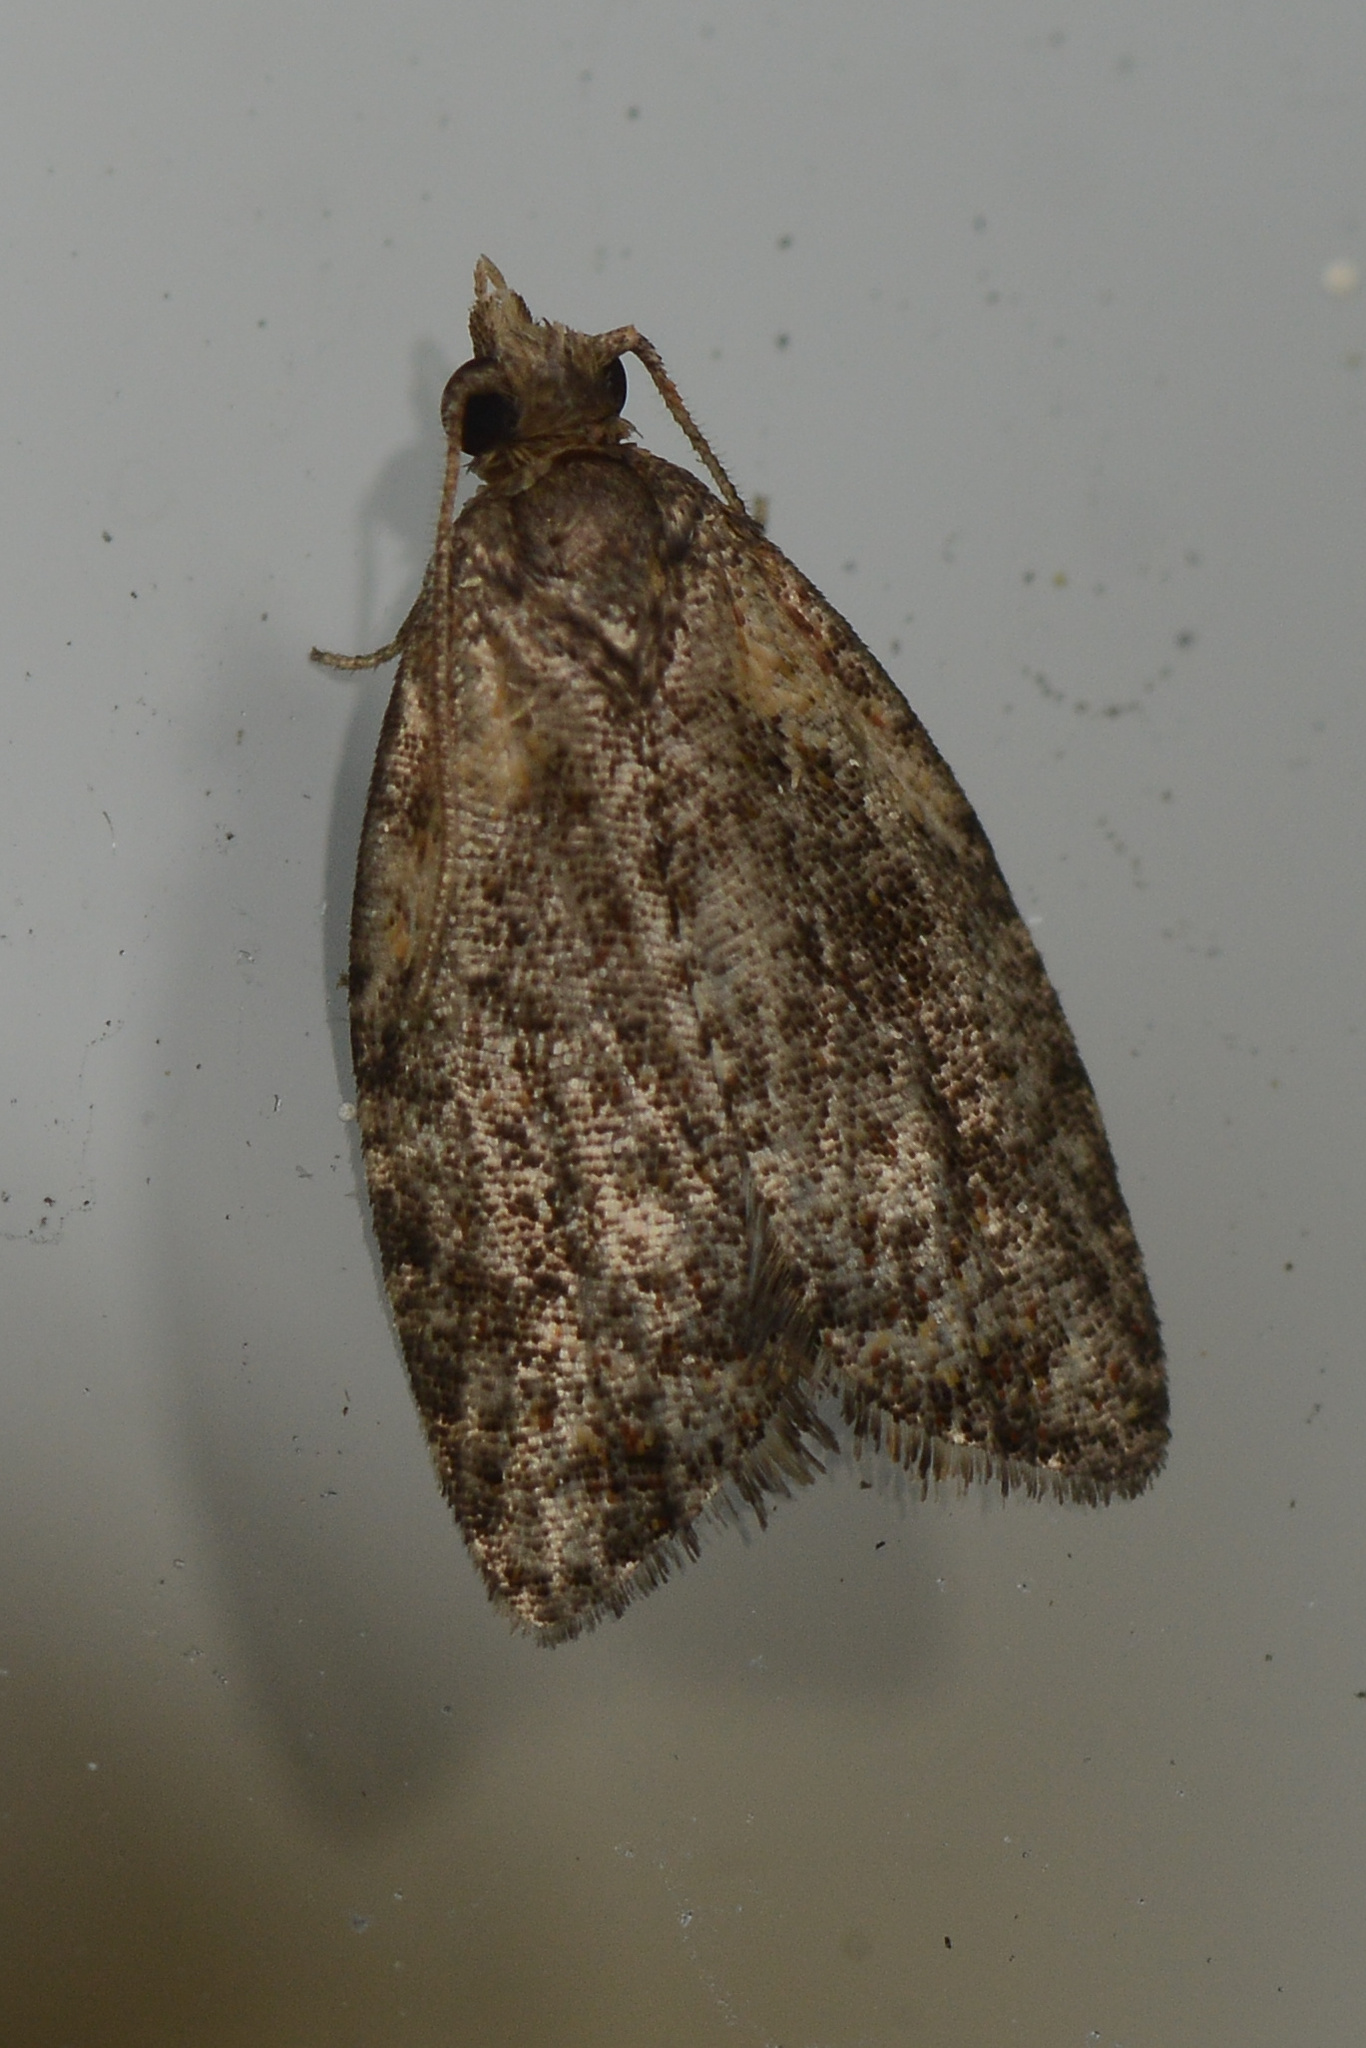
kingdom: Animalia
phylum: Arthropoda
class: Insecta
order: Lepidoptera
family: Tortricidae
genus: Capua
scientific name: Capua intractana
